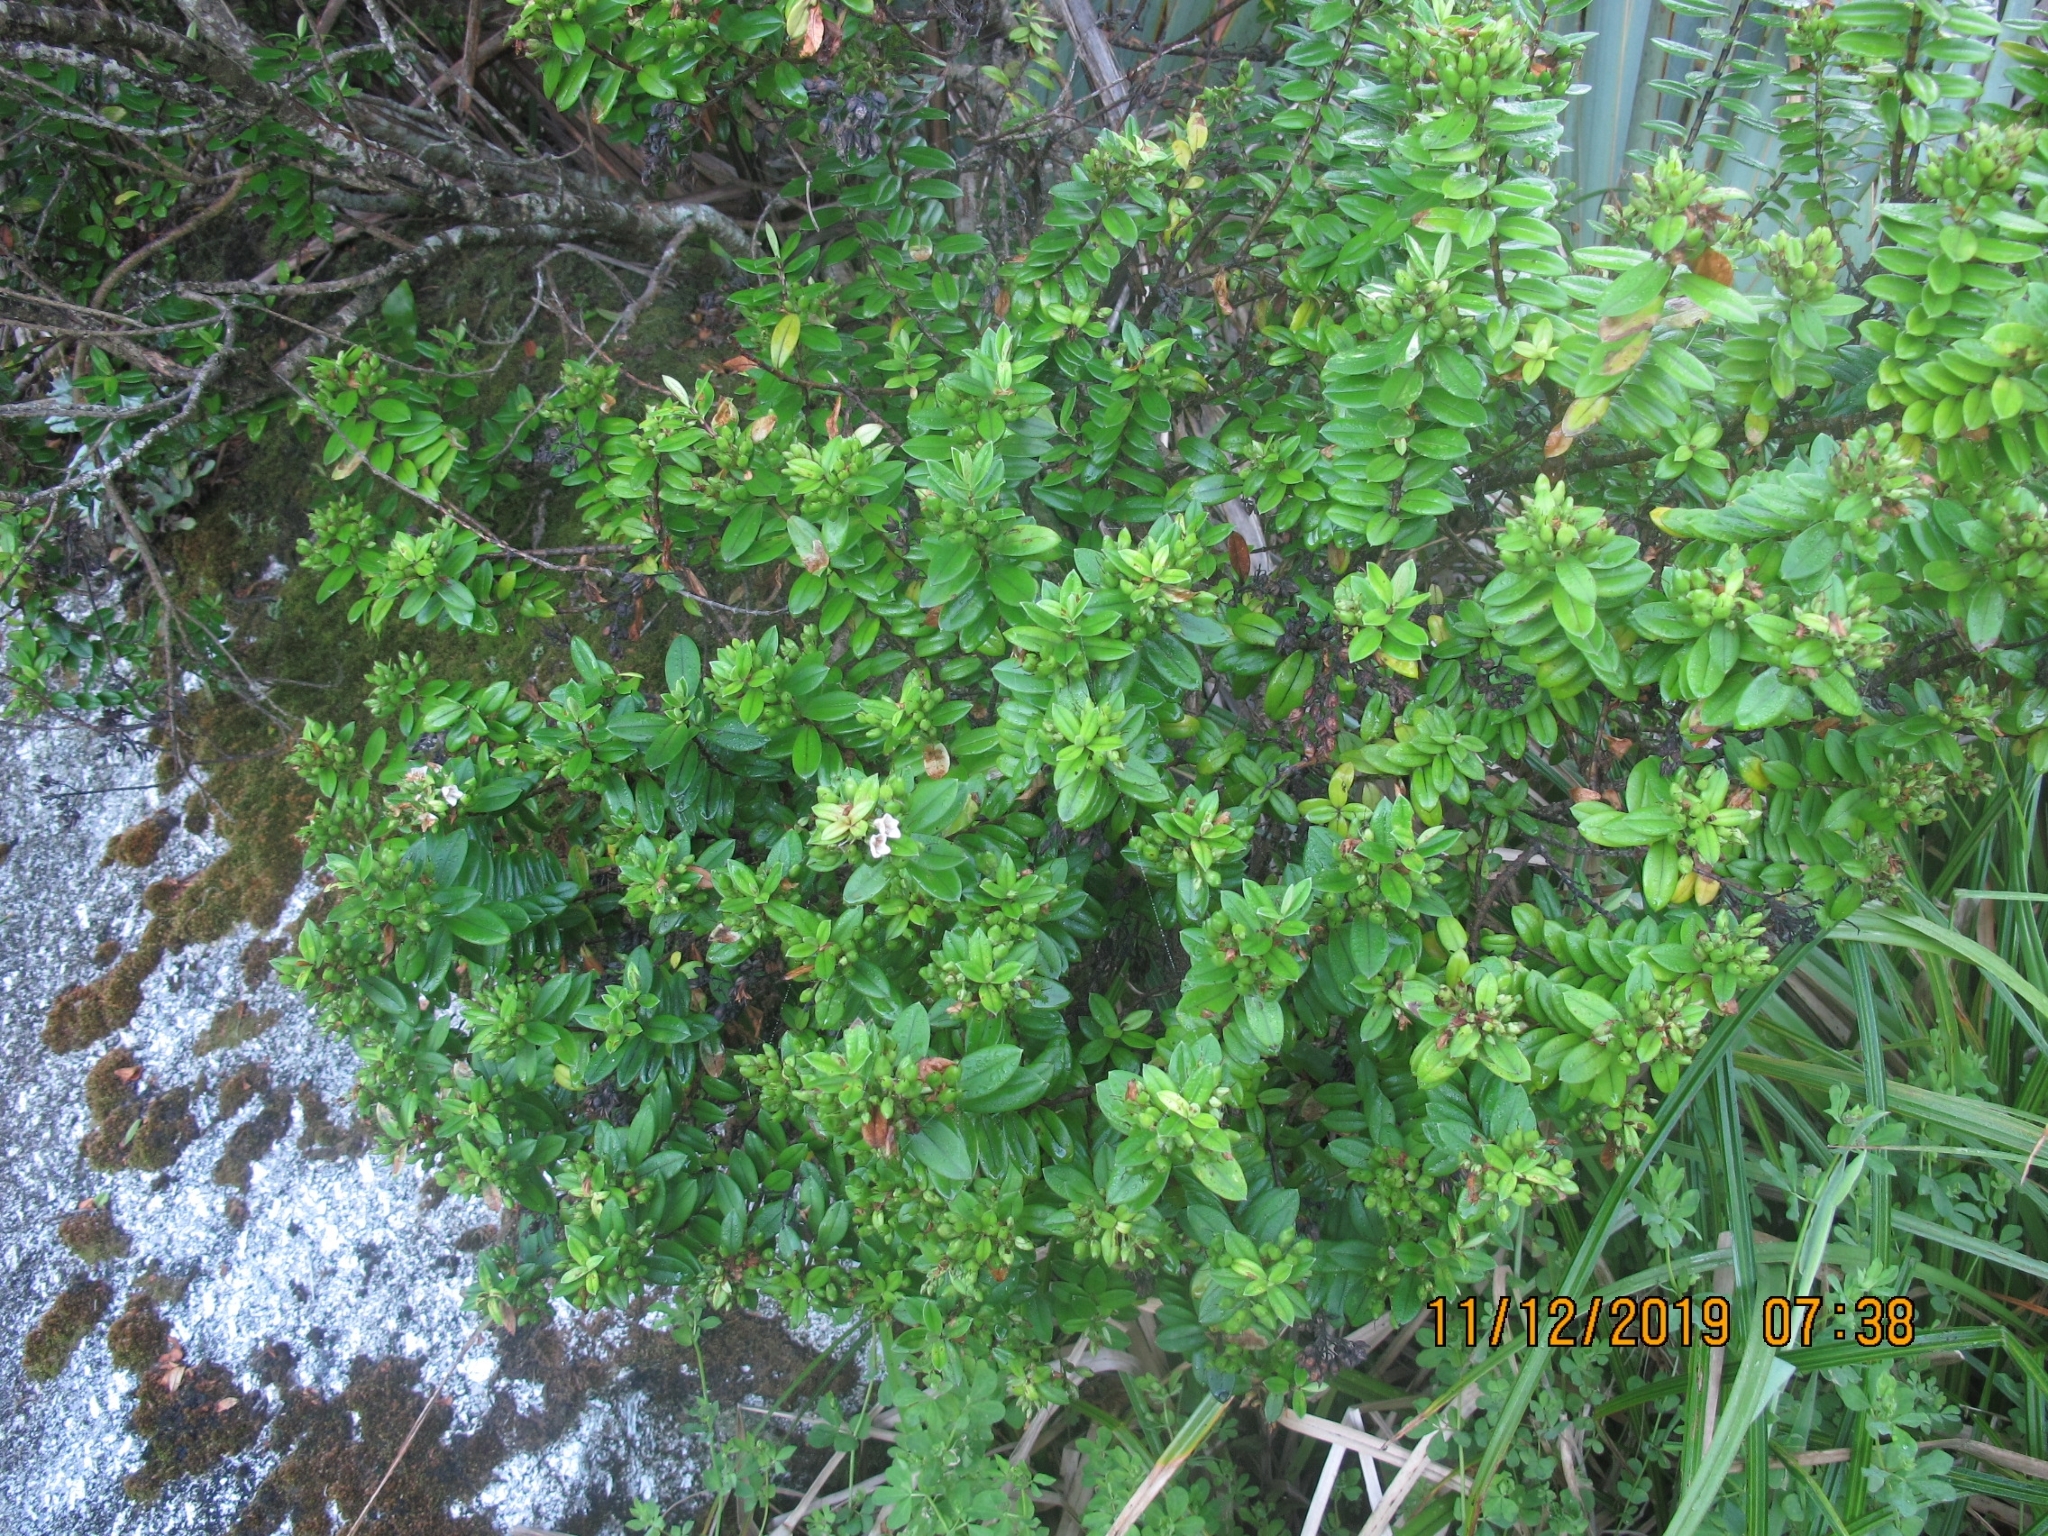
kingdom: Plantae
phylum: Tracheophyta
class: Magnoliopsida
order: Lamiales
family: Plantaginaceae
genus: Veronica
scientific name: Veronica elliptica
